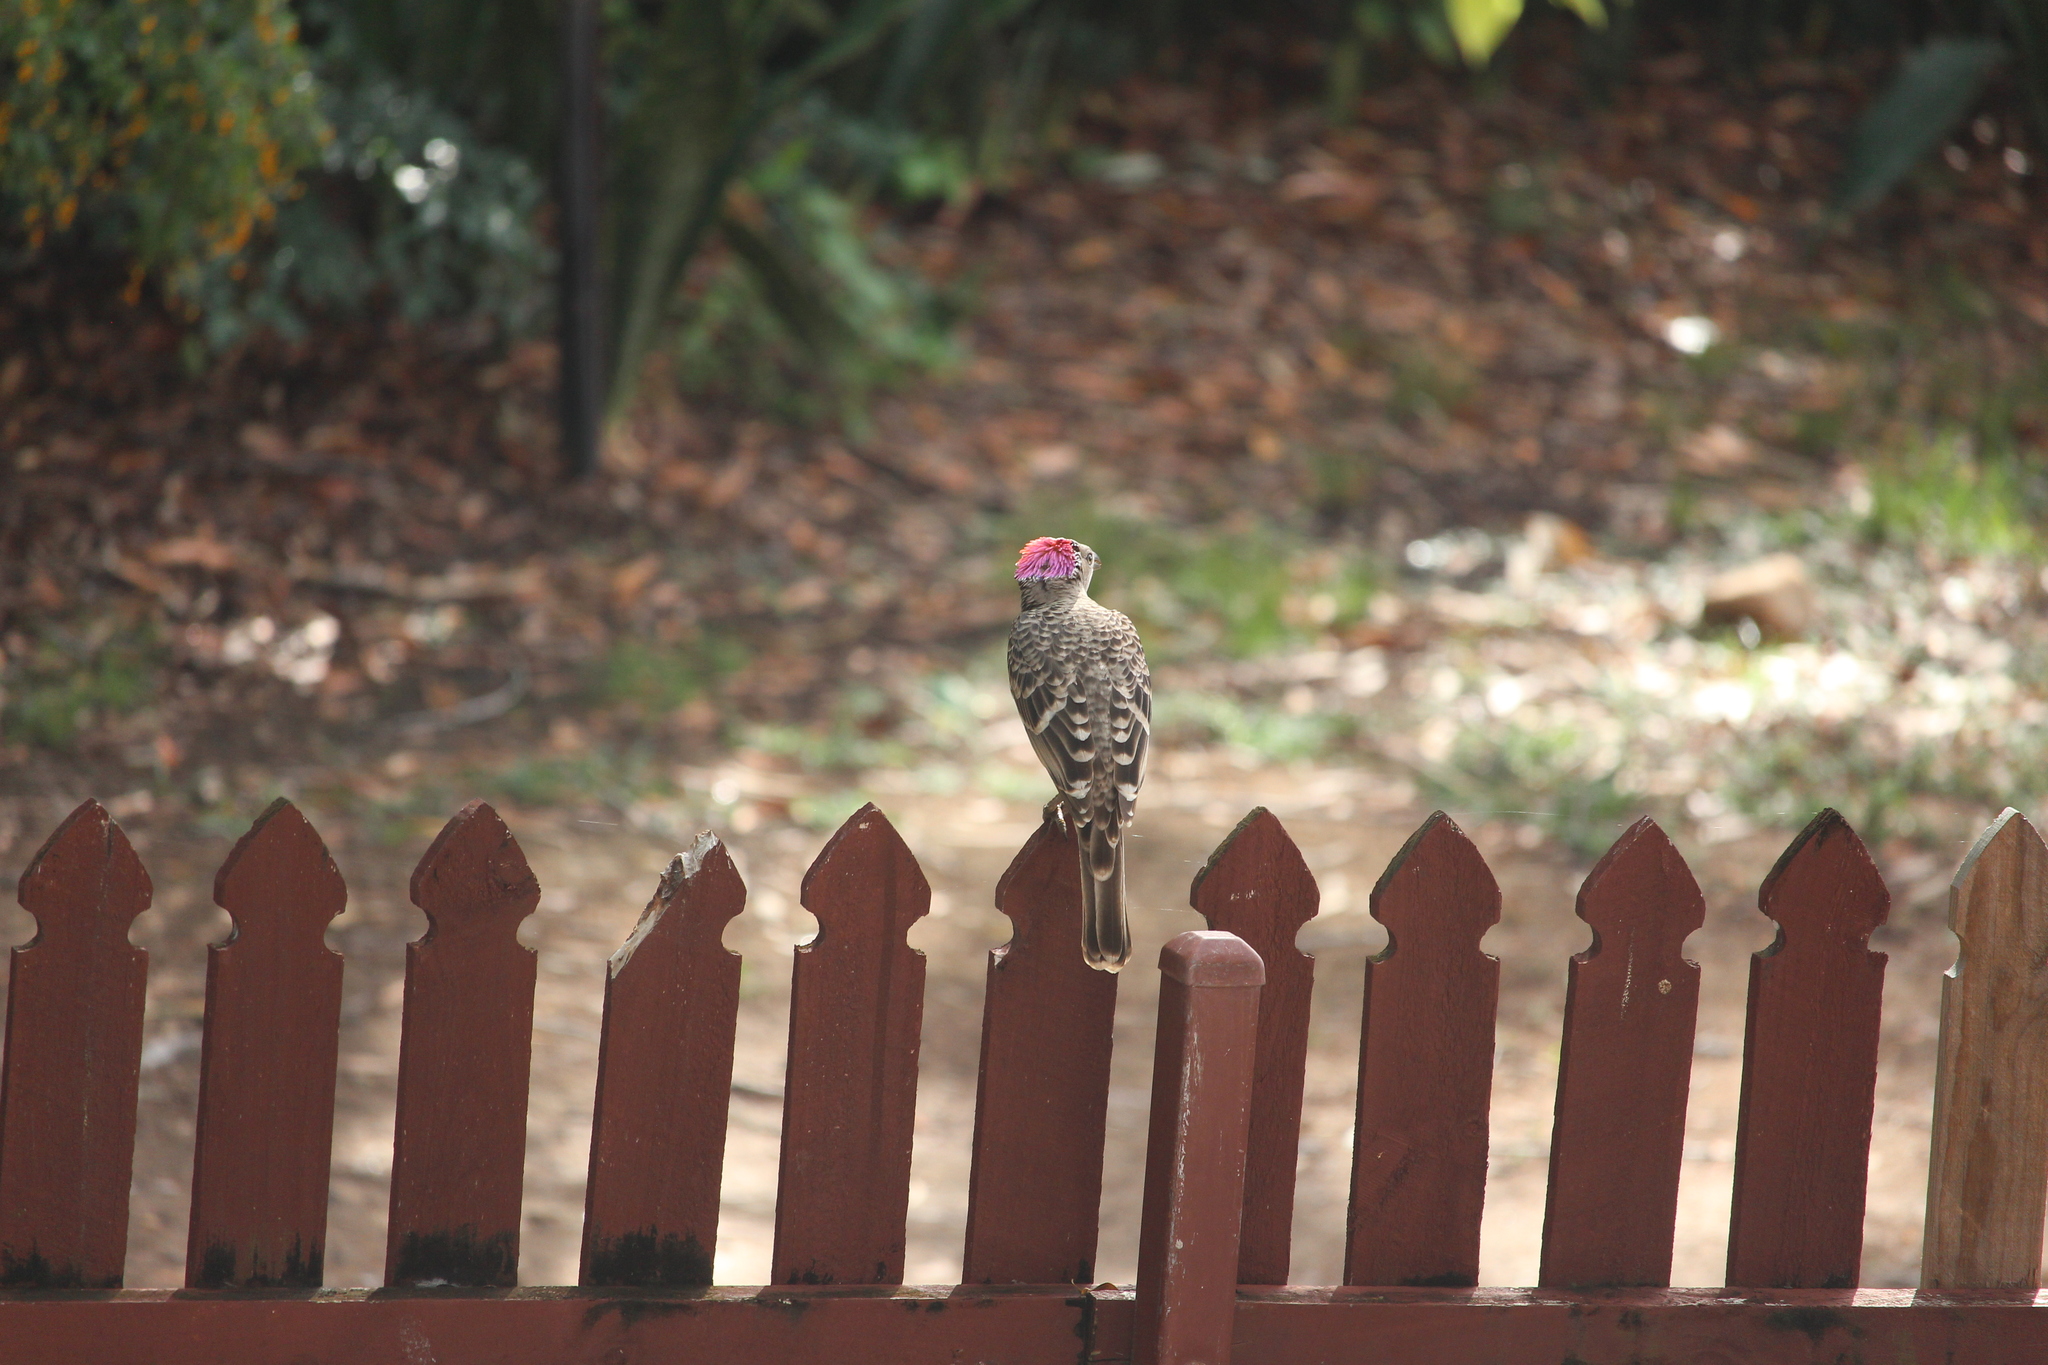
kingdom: Animalia
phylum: Chordata
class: Aves
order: Passeriformes
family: Ptilonorhynchidae
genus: Chlamydera
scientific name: Chlamydera nuchalis
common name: Great bowerbird
